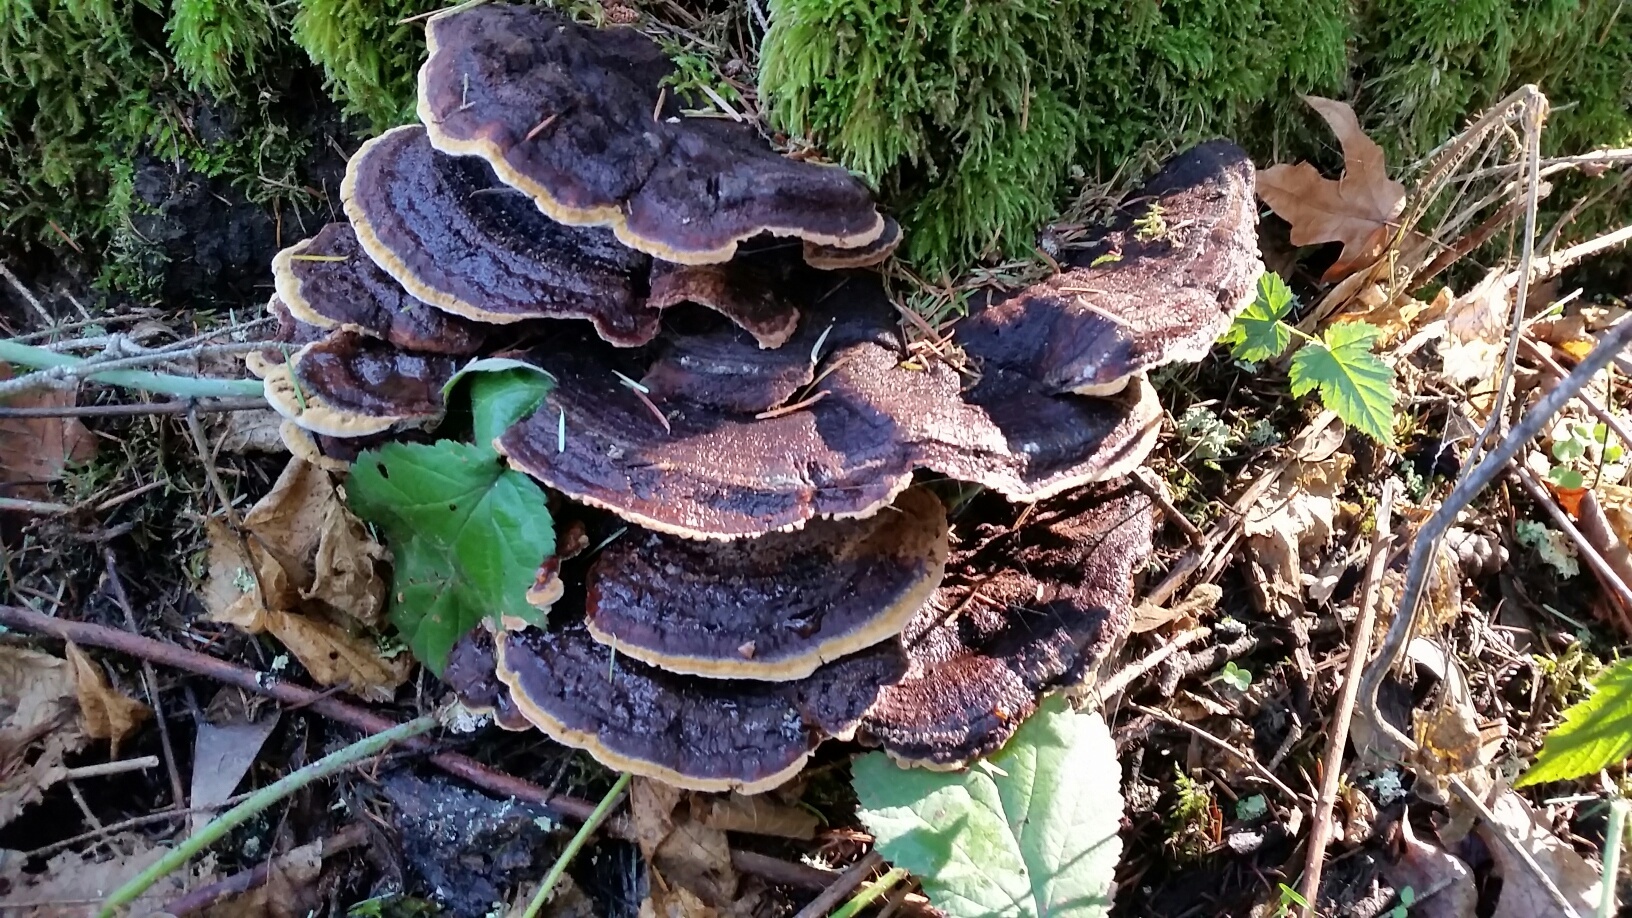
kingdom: Fungi
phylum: Basidiomycota
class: Agaricomycetes
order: Polyporales
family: Laetiporaceae
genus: Phaeolus
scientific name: Phaeolus schweinitzii
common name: Dyer's mazegill
